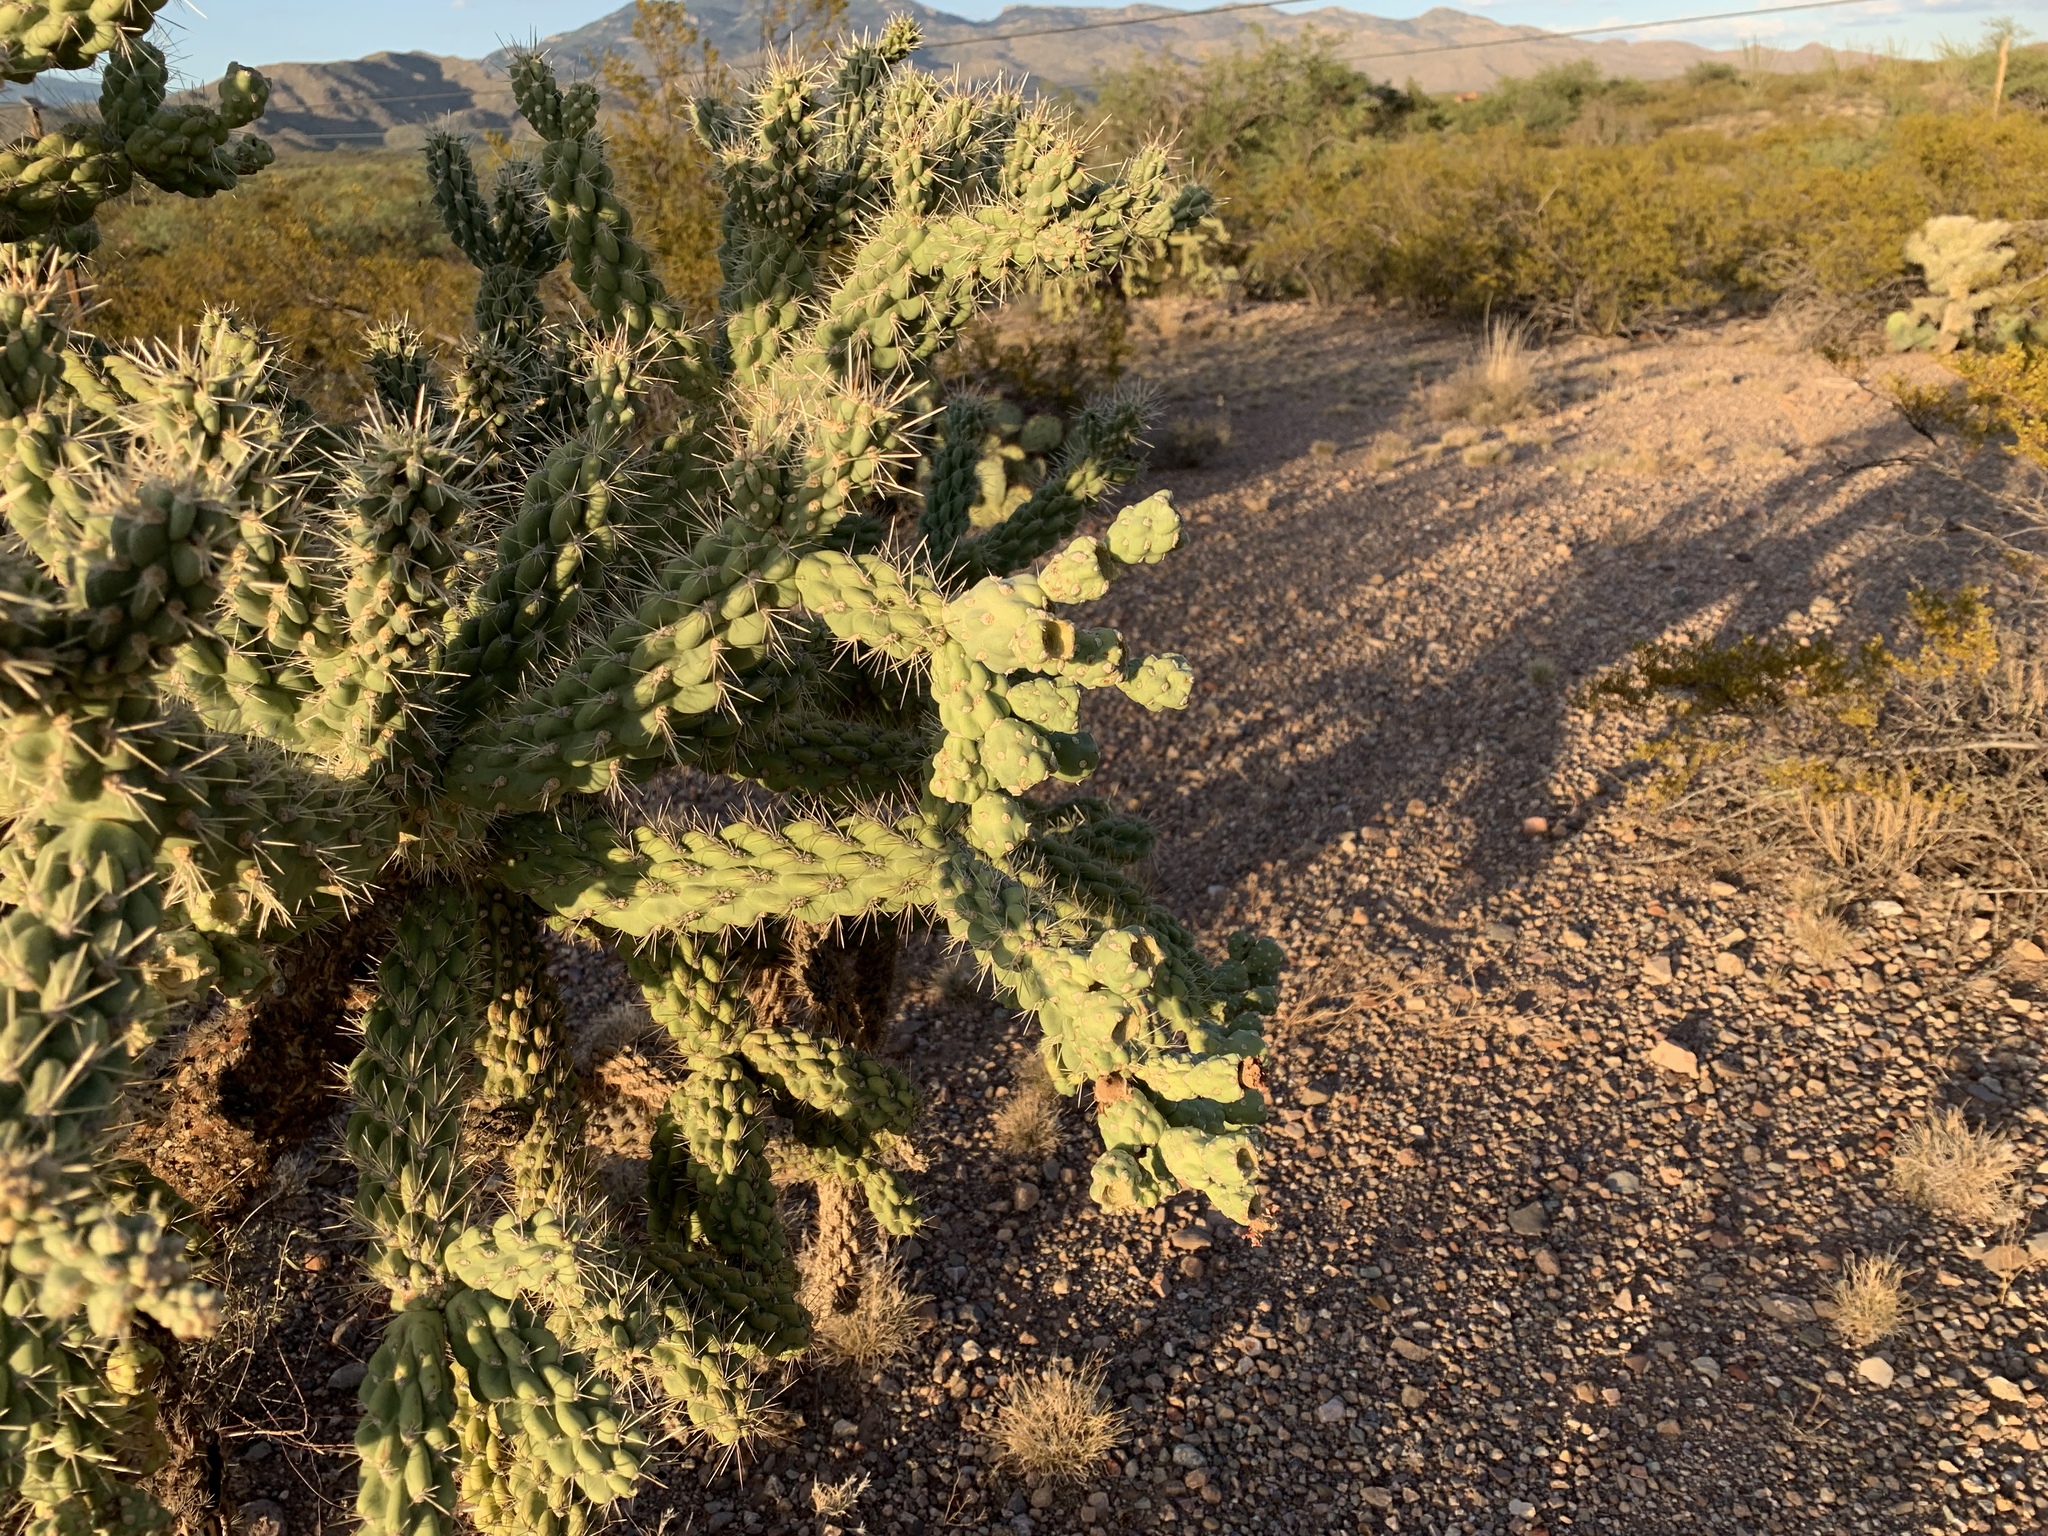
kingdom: Plantae
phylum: Tracheophyta
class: Magnoliopsida
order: Caryophyllales
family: Cactaceae
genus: Cylindropuntia
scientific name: Cylindropuntia fulgida
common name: Jumping cholla
